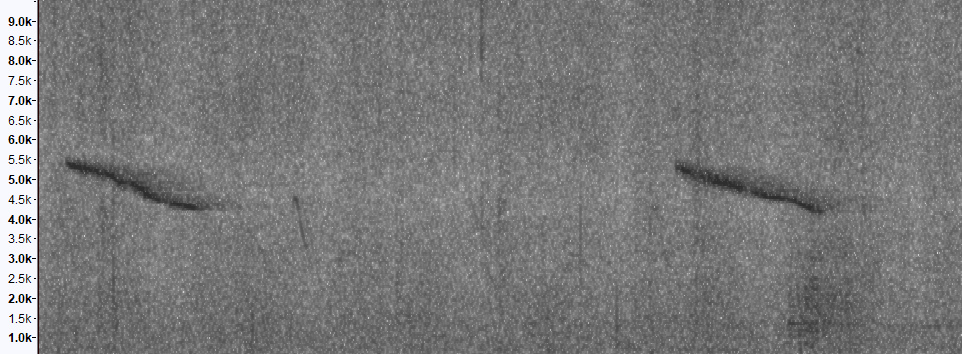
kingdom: Animalia
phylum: Chordata
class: Aves
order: Passeriformes
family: Muscicapidae
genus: Copsychus
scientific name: Copsychus saularis
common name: Oriental magpie-robin
